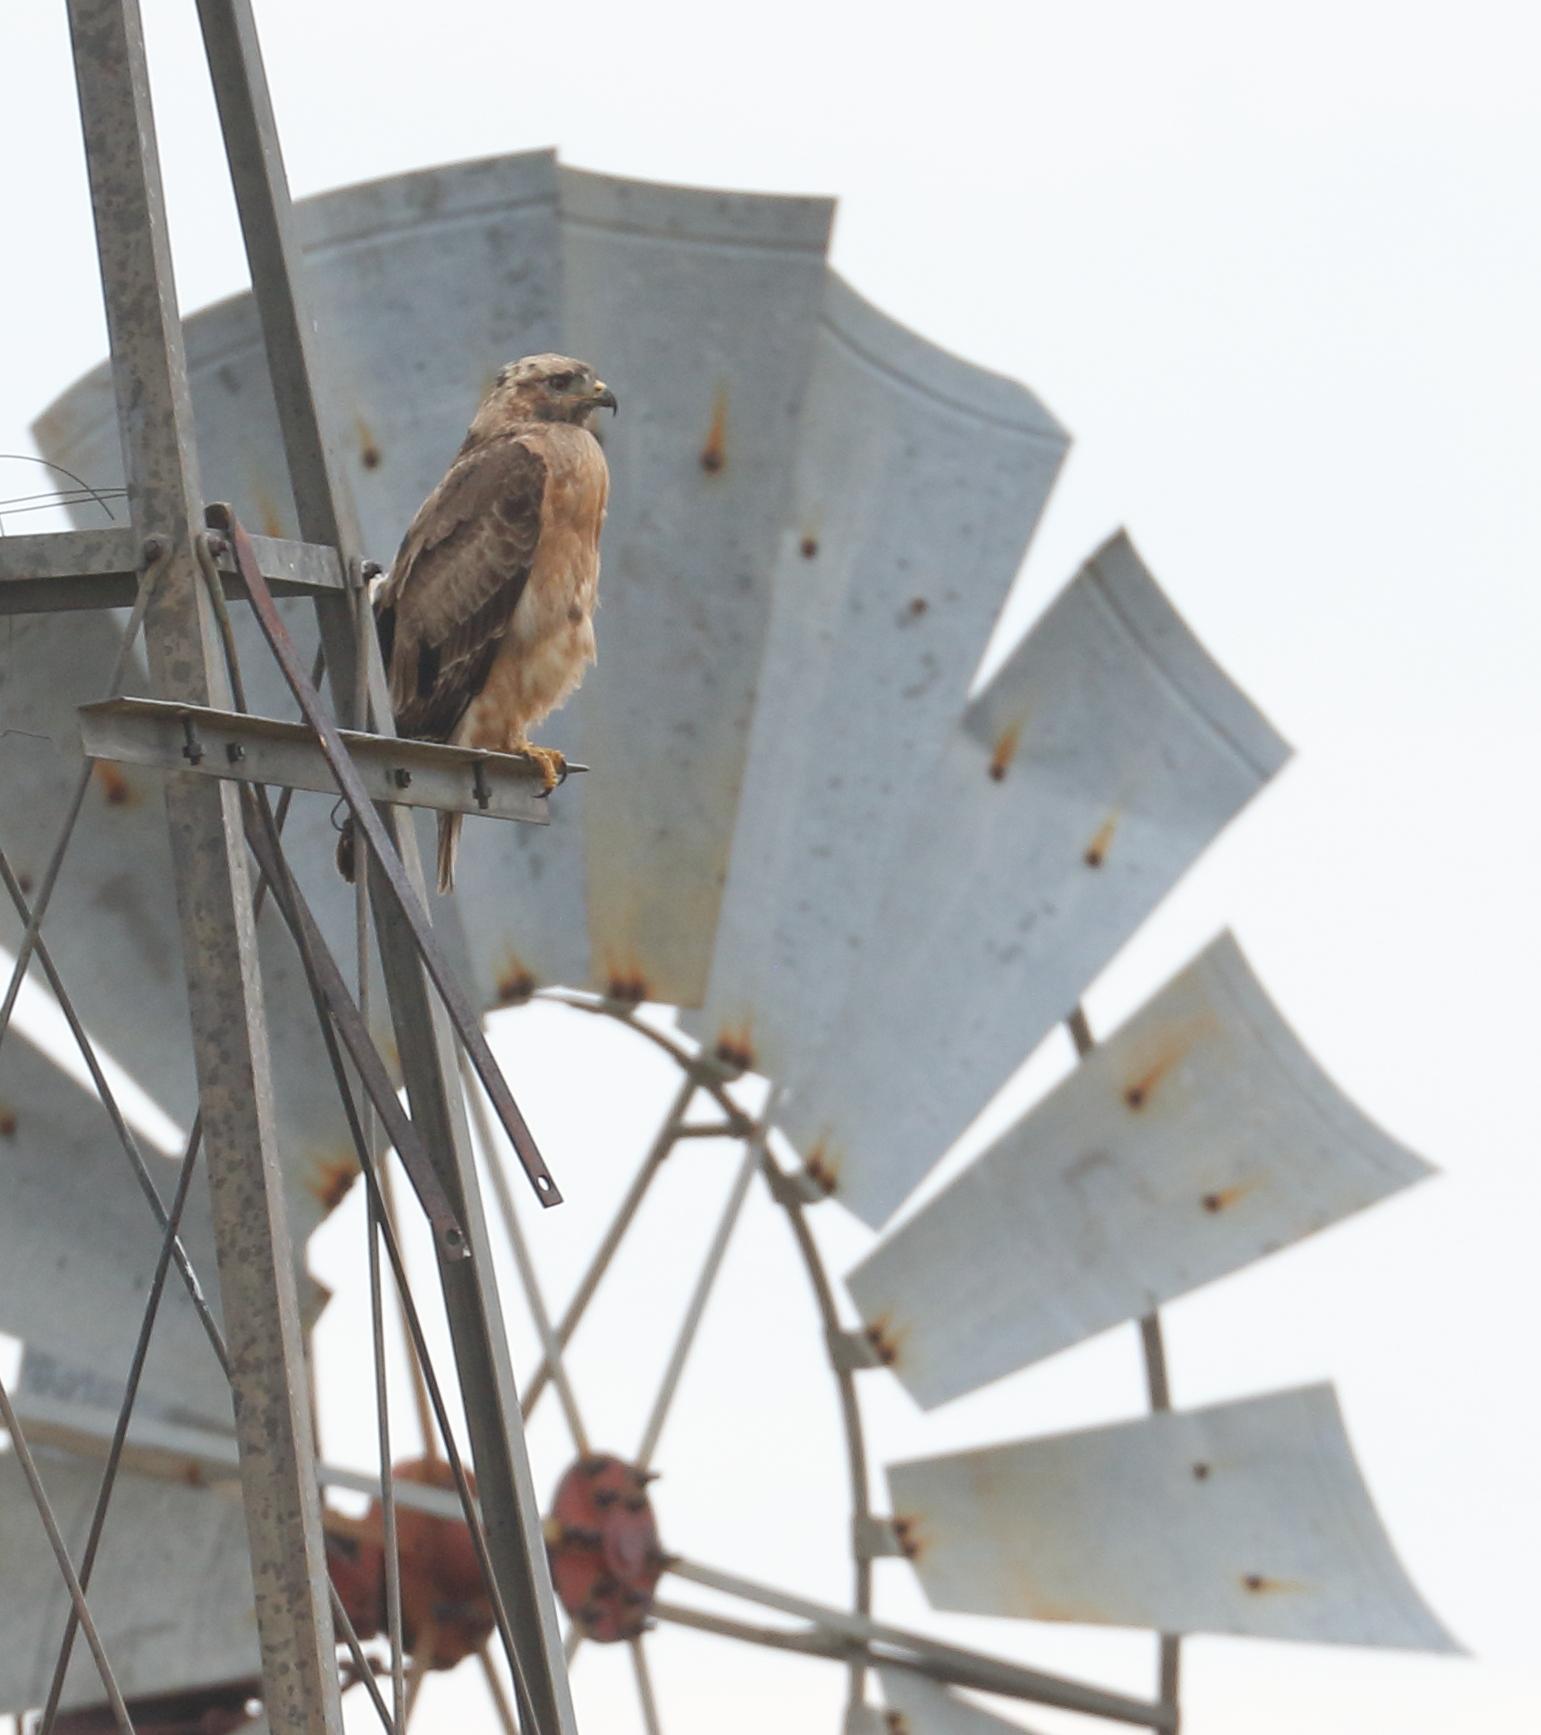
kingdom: Animalia
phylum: Chordata
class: Aves
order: Accipitriformes
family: Accipitridae
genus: Buteo
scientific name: Buteo rufofuscus
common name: Jackal buzzard
